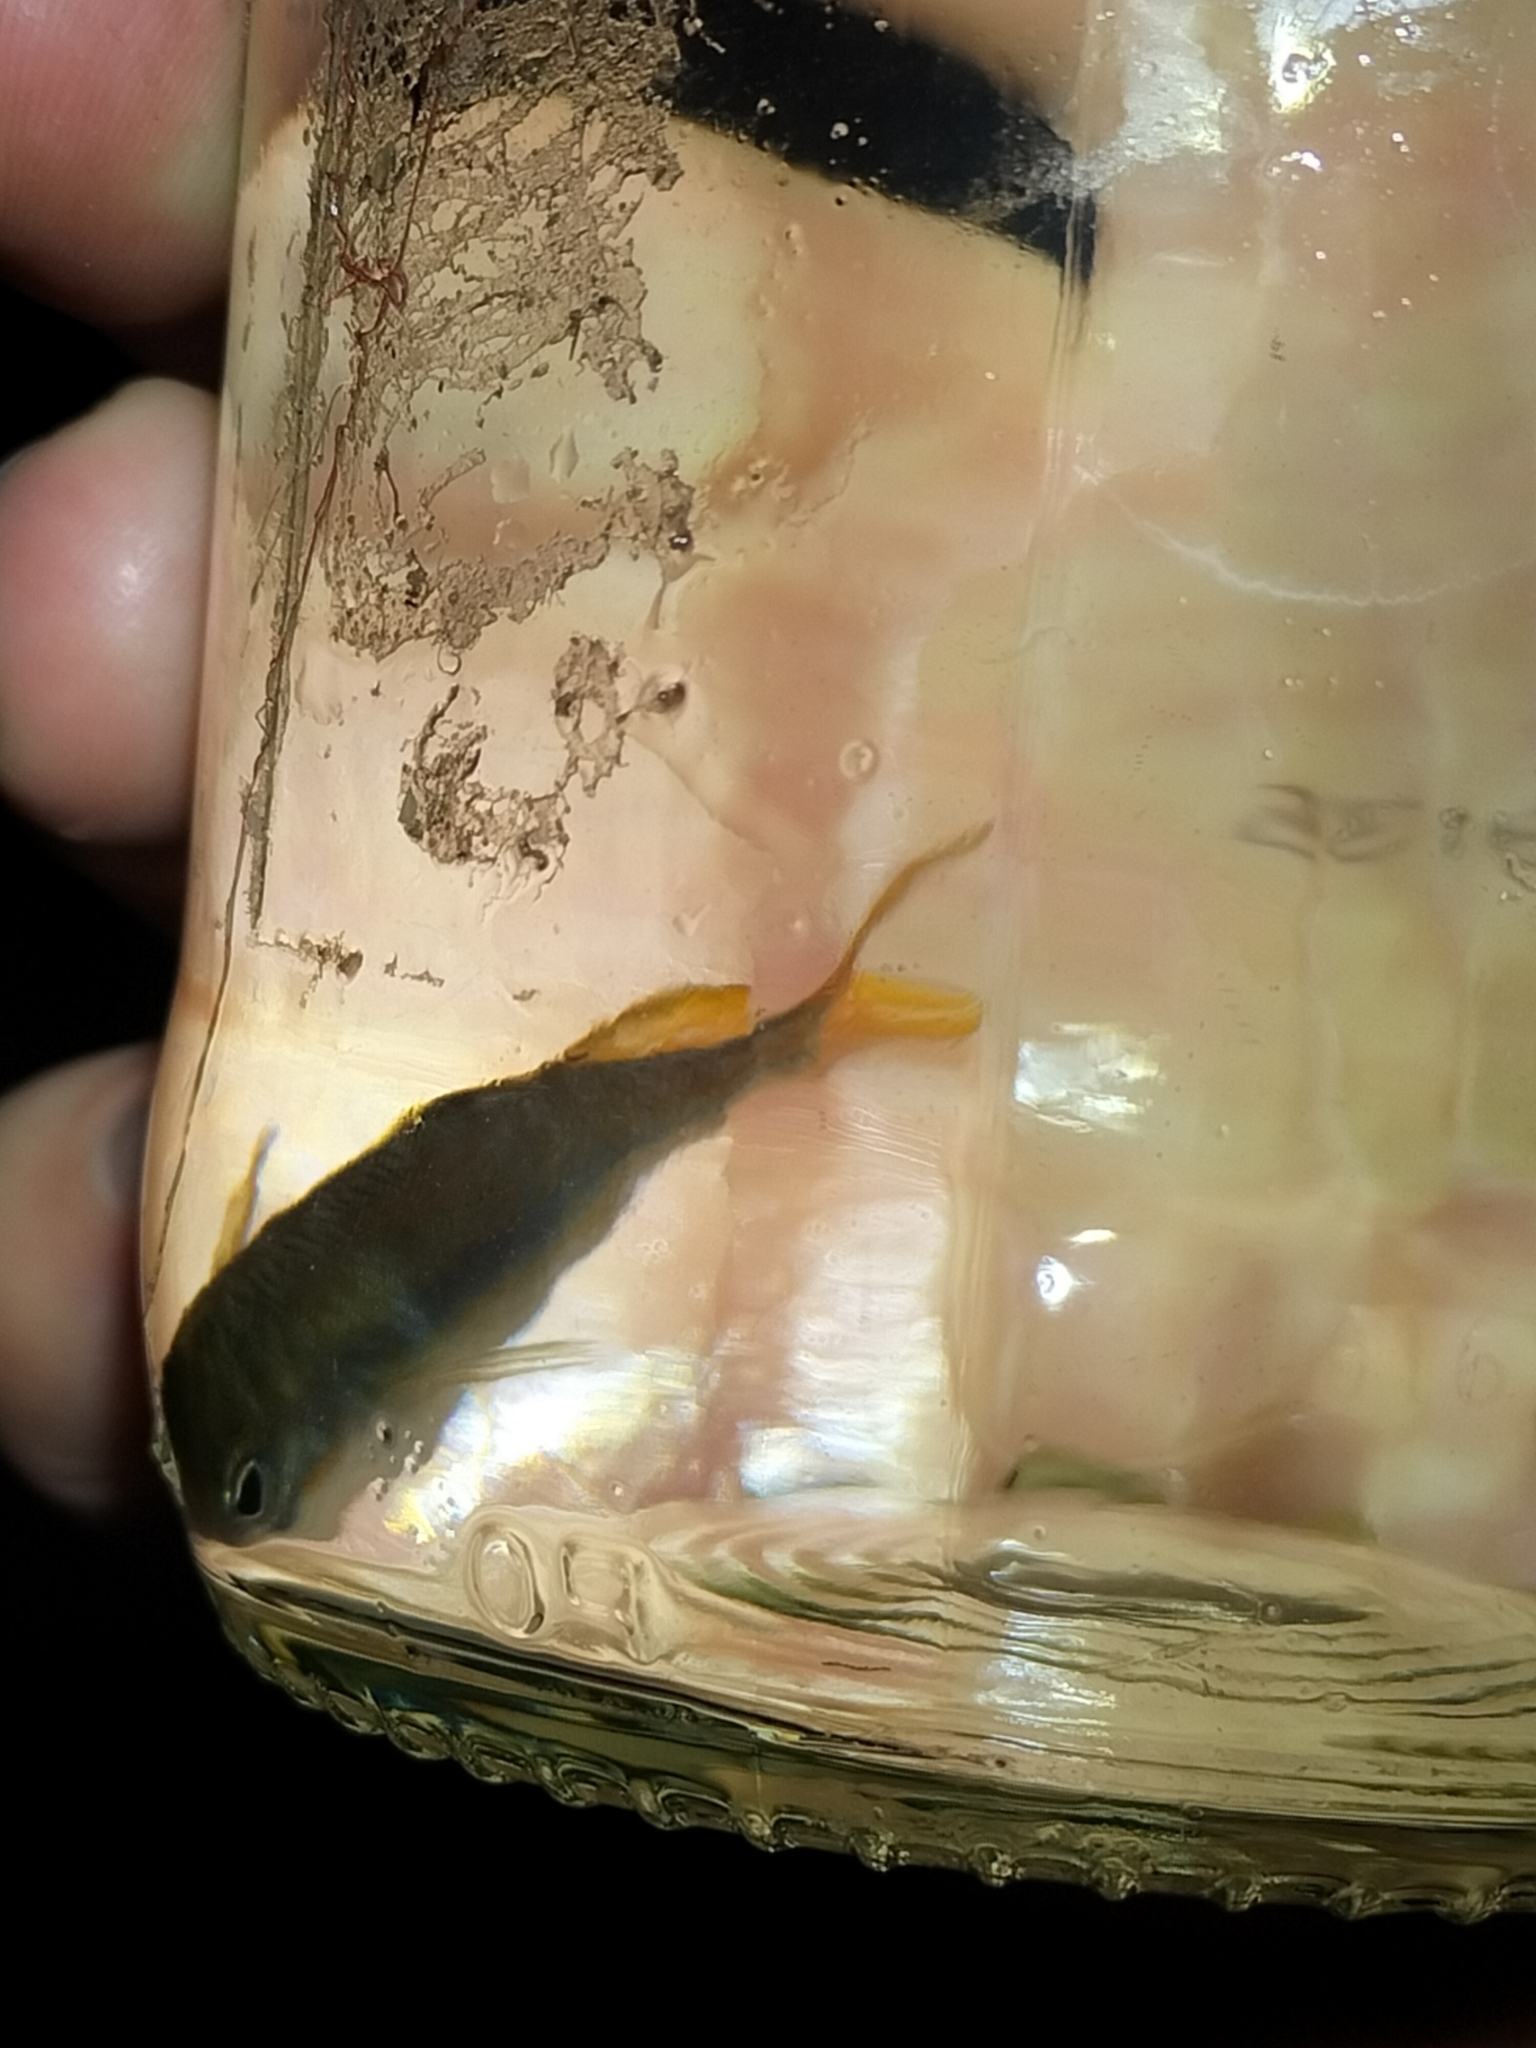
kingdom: Animalia
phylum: Chordata
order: Atheriniformes
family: Melanotaeniidae
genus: Melanotaenia
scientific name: Melanotaenia splendida
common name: Checkered rainbowfish
